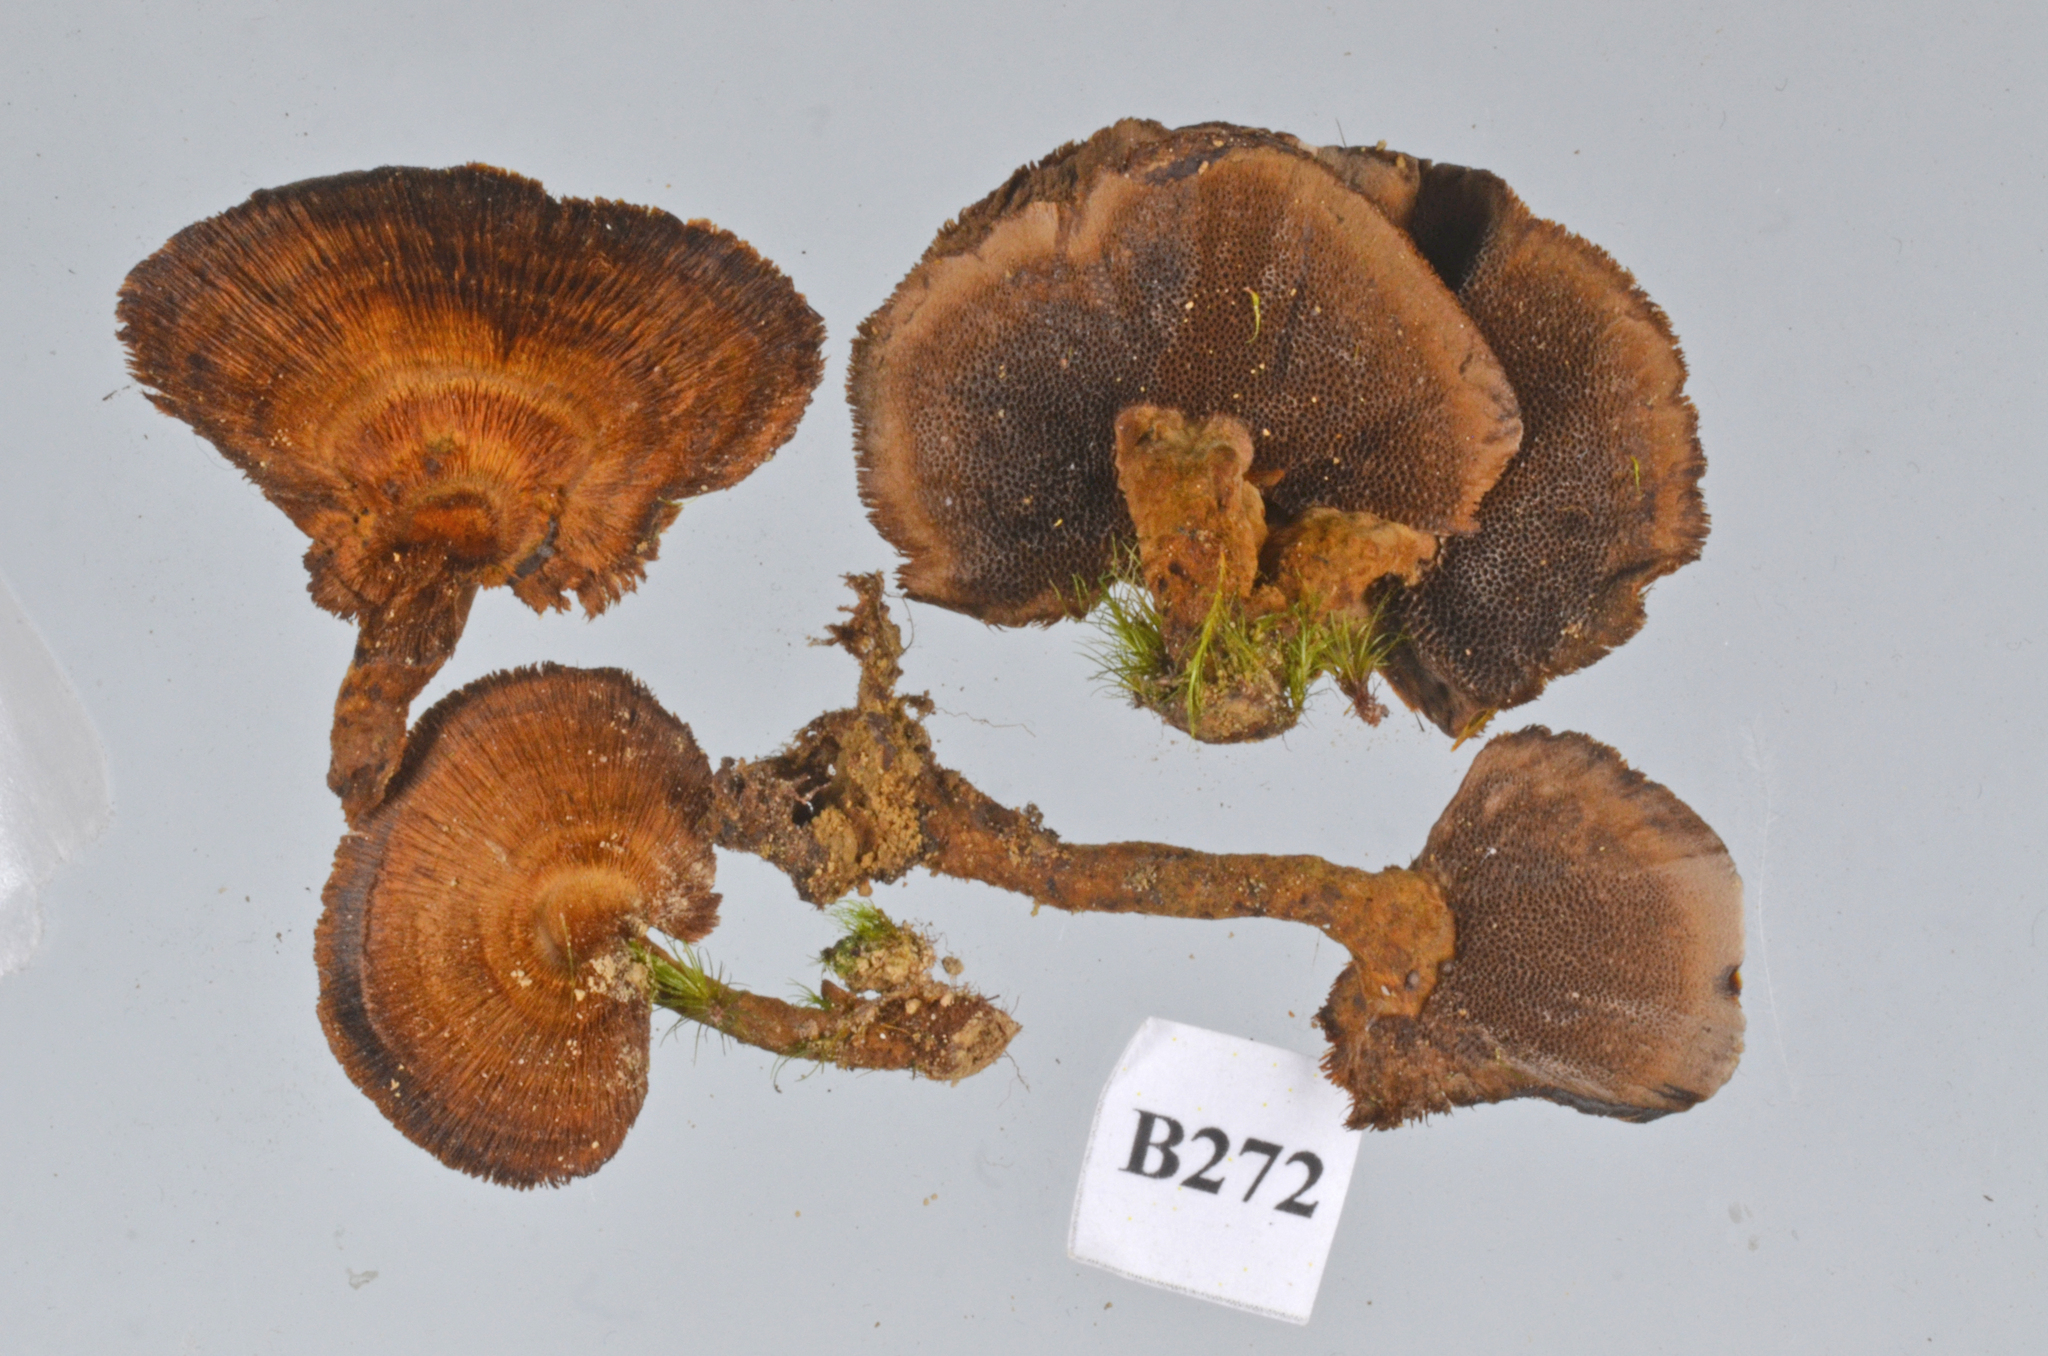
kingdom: Fungi
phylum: Basidiomycota
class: Agaricomycetes
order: Hymenochaetales
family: Hymenochaetaceae
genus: Coltricia
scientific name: Coltricia australica
